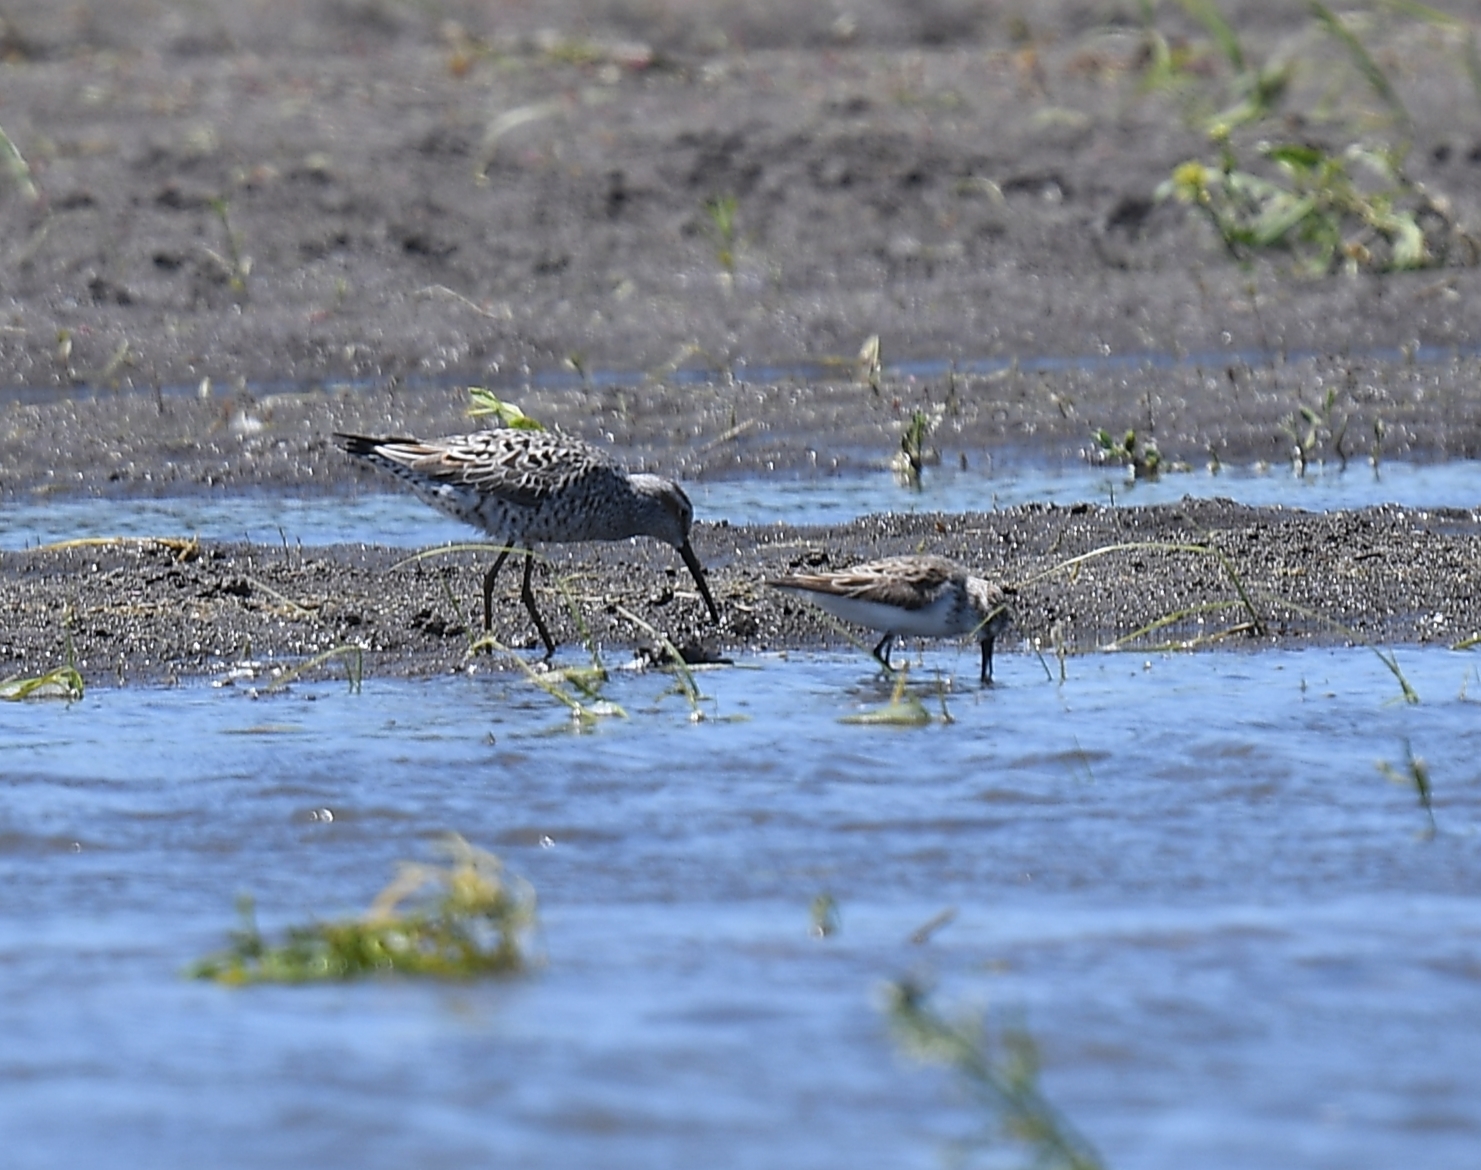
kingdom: Animalia
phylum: Chordata
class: Aves
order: Charadriiformes
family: Scolopacidae
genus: Calidris
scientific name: Calidris himantopus
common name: Stilt sandpiper
